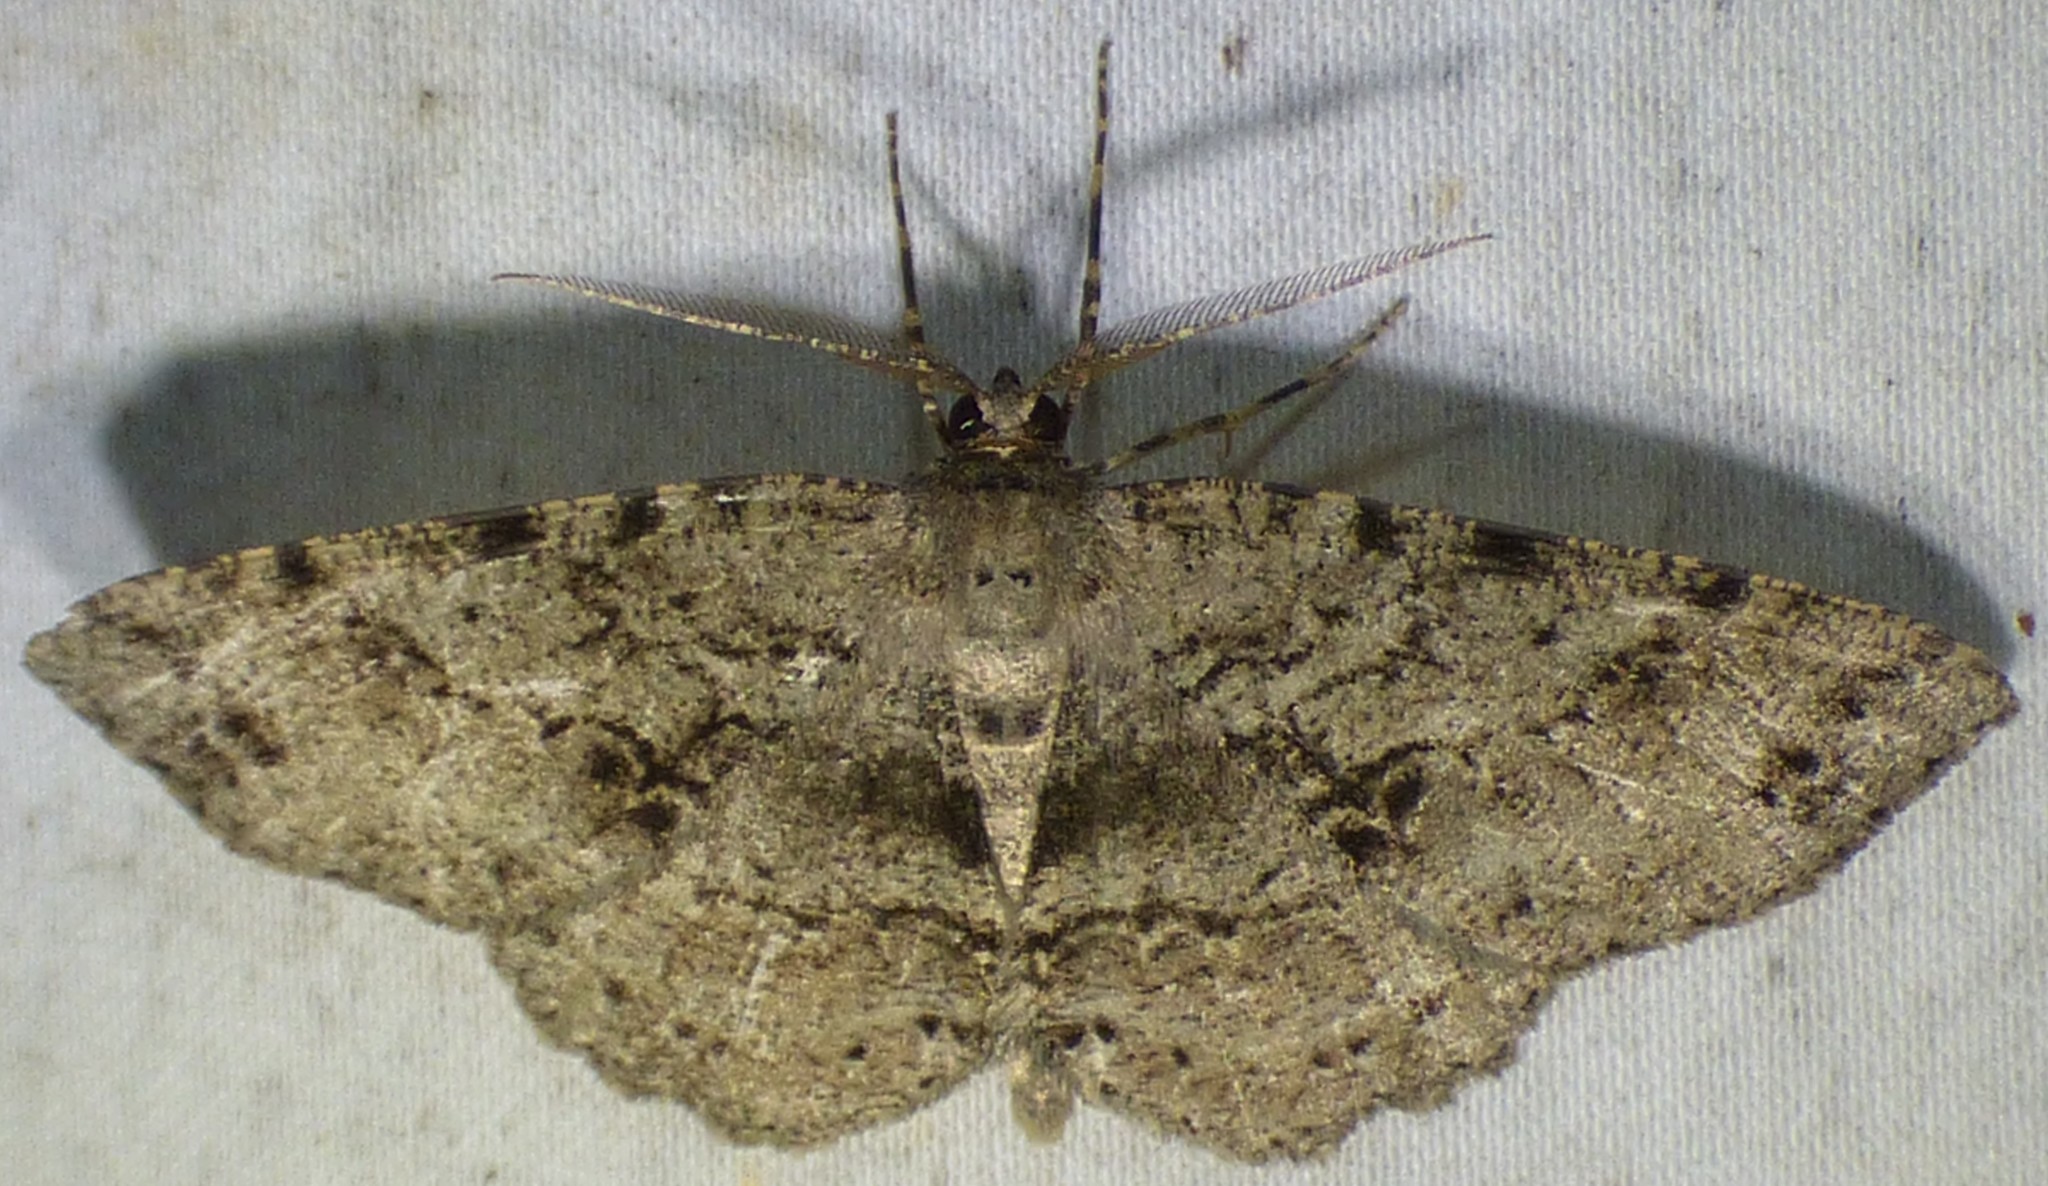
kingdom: Animalia
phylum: Arthropoda
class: Insecta
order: Lepidoptera
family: Geometridae
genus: Melanolophia
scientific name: Melanolophia canadaria
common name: Canadian melanolophia
